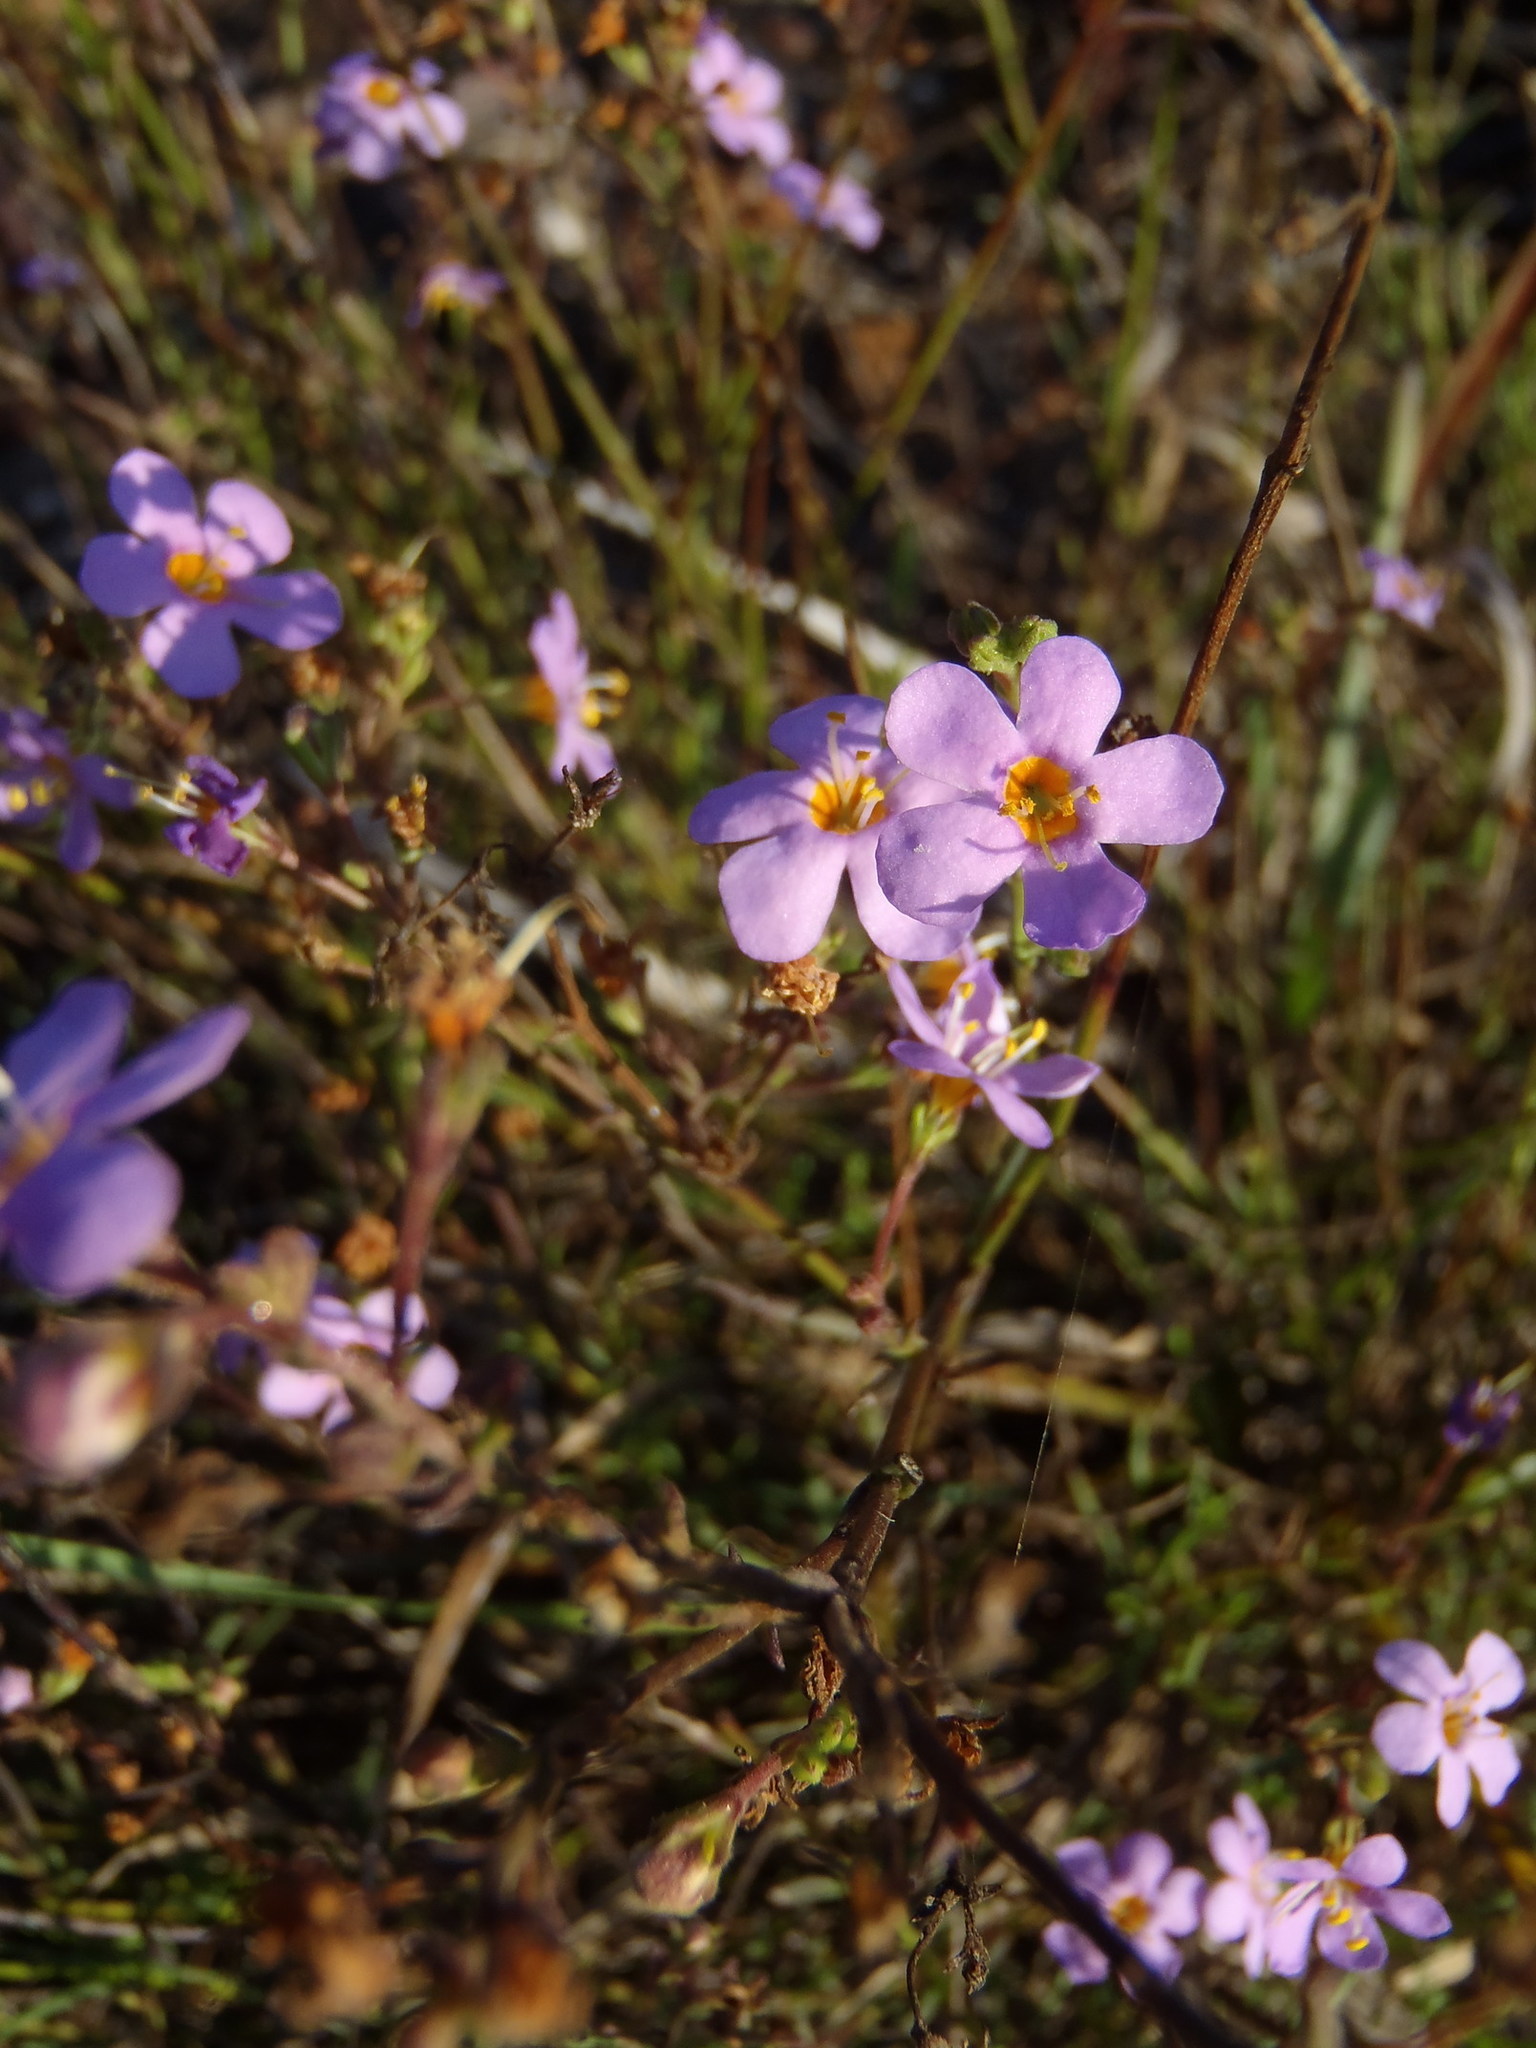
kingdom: Plantae
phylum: Tracheophyta
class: Magnoliopsida
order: Lamiales
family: Scrophulariaceae
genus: Chaenostoma
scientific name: Chaenostoma subnudum
